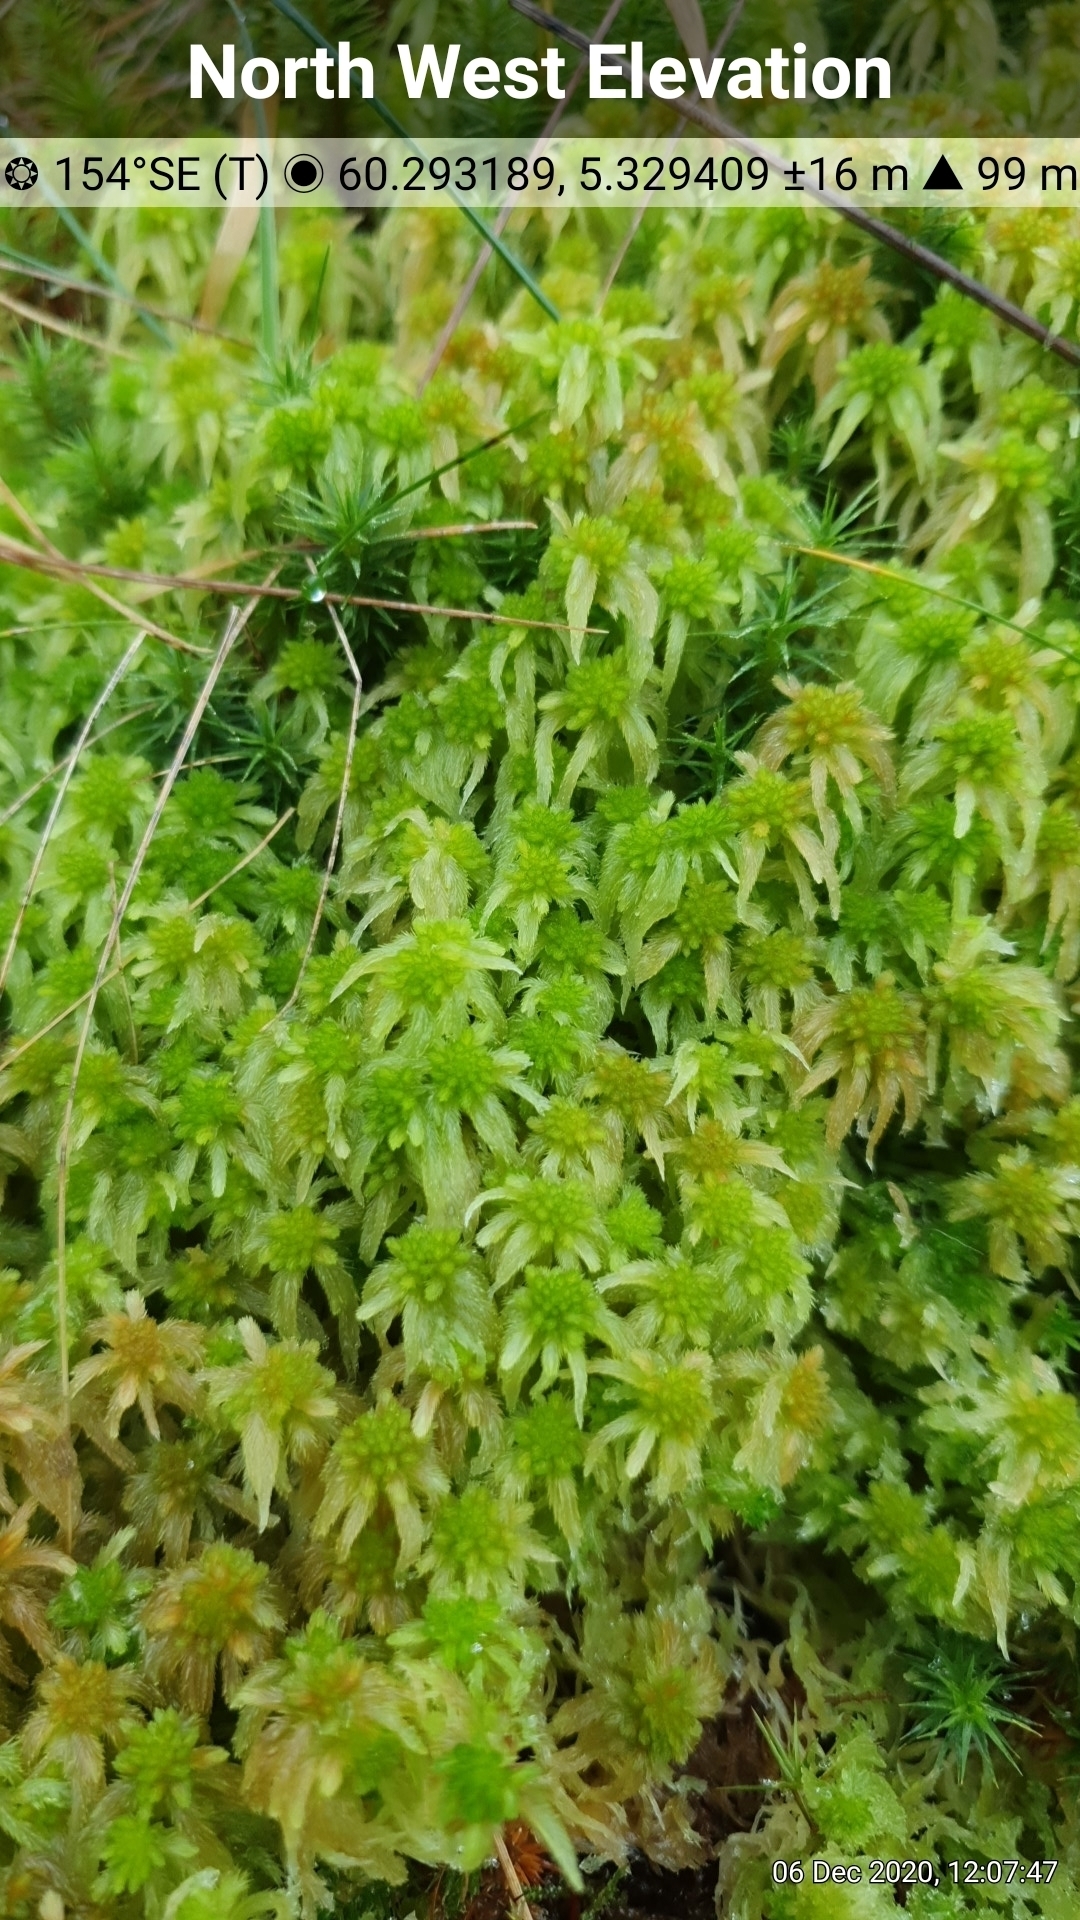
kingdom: Plantae
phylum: Bryophyta
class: Sphagnopsida
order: Sphagnales
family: Sphagnaceae
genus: Sphagnum
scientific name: Sphagnum fallax
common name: Flat-top peat moss
